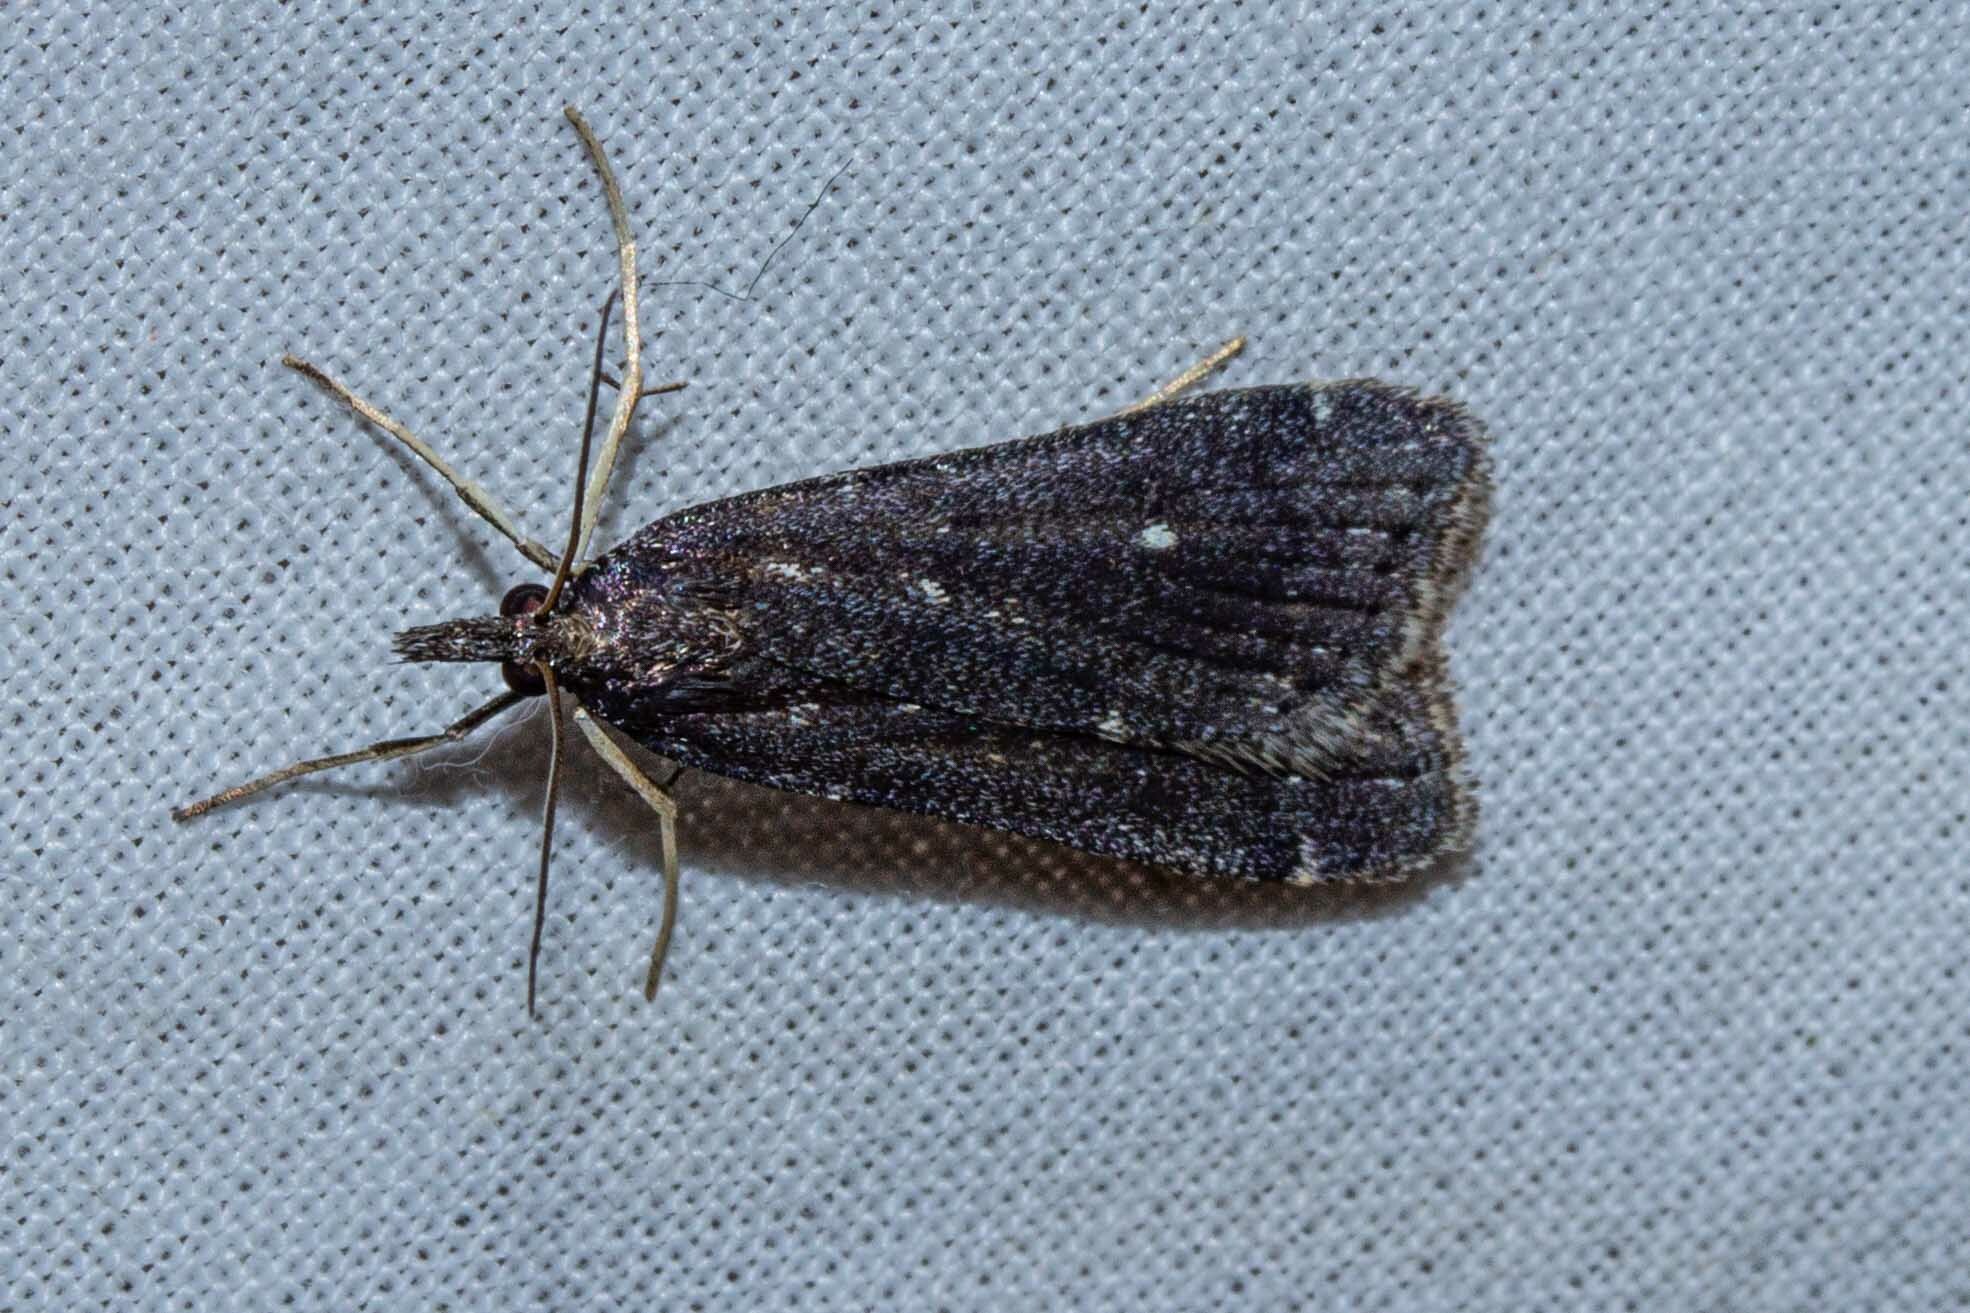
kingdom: Animalia
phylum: Arthropoda
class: Insecta
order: Lepidoptera
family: Crambidae
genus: Eudonia
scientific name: Eudonia oculata
